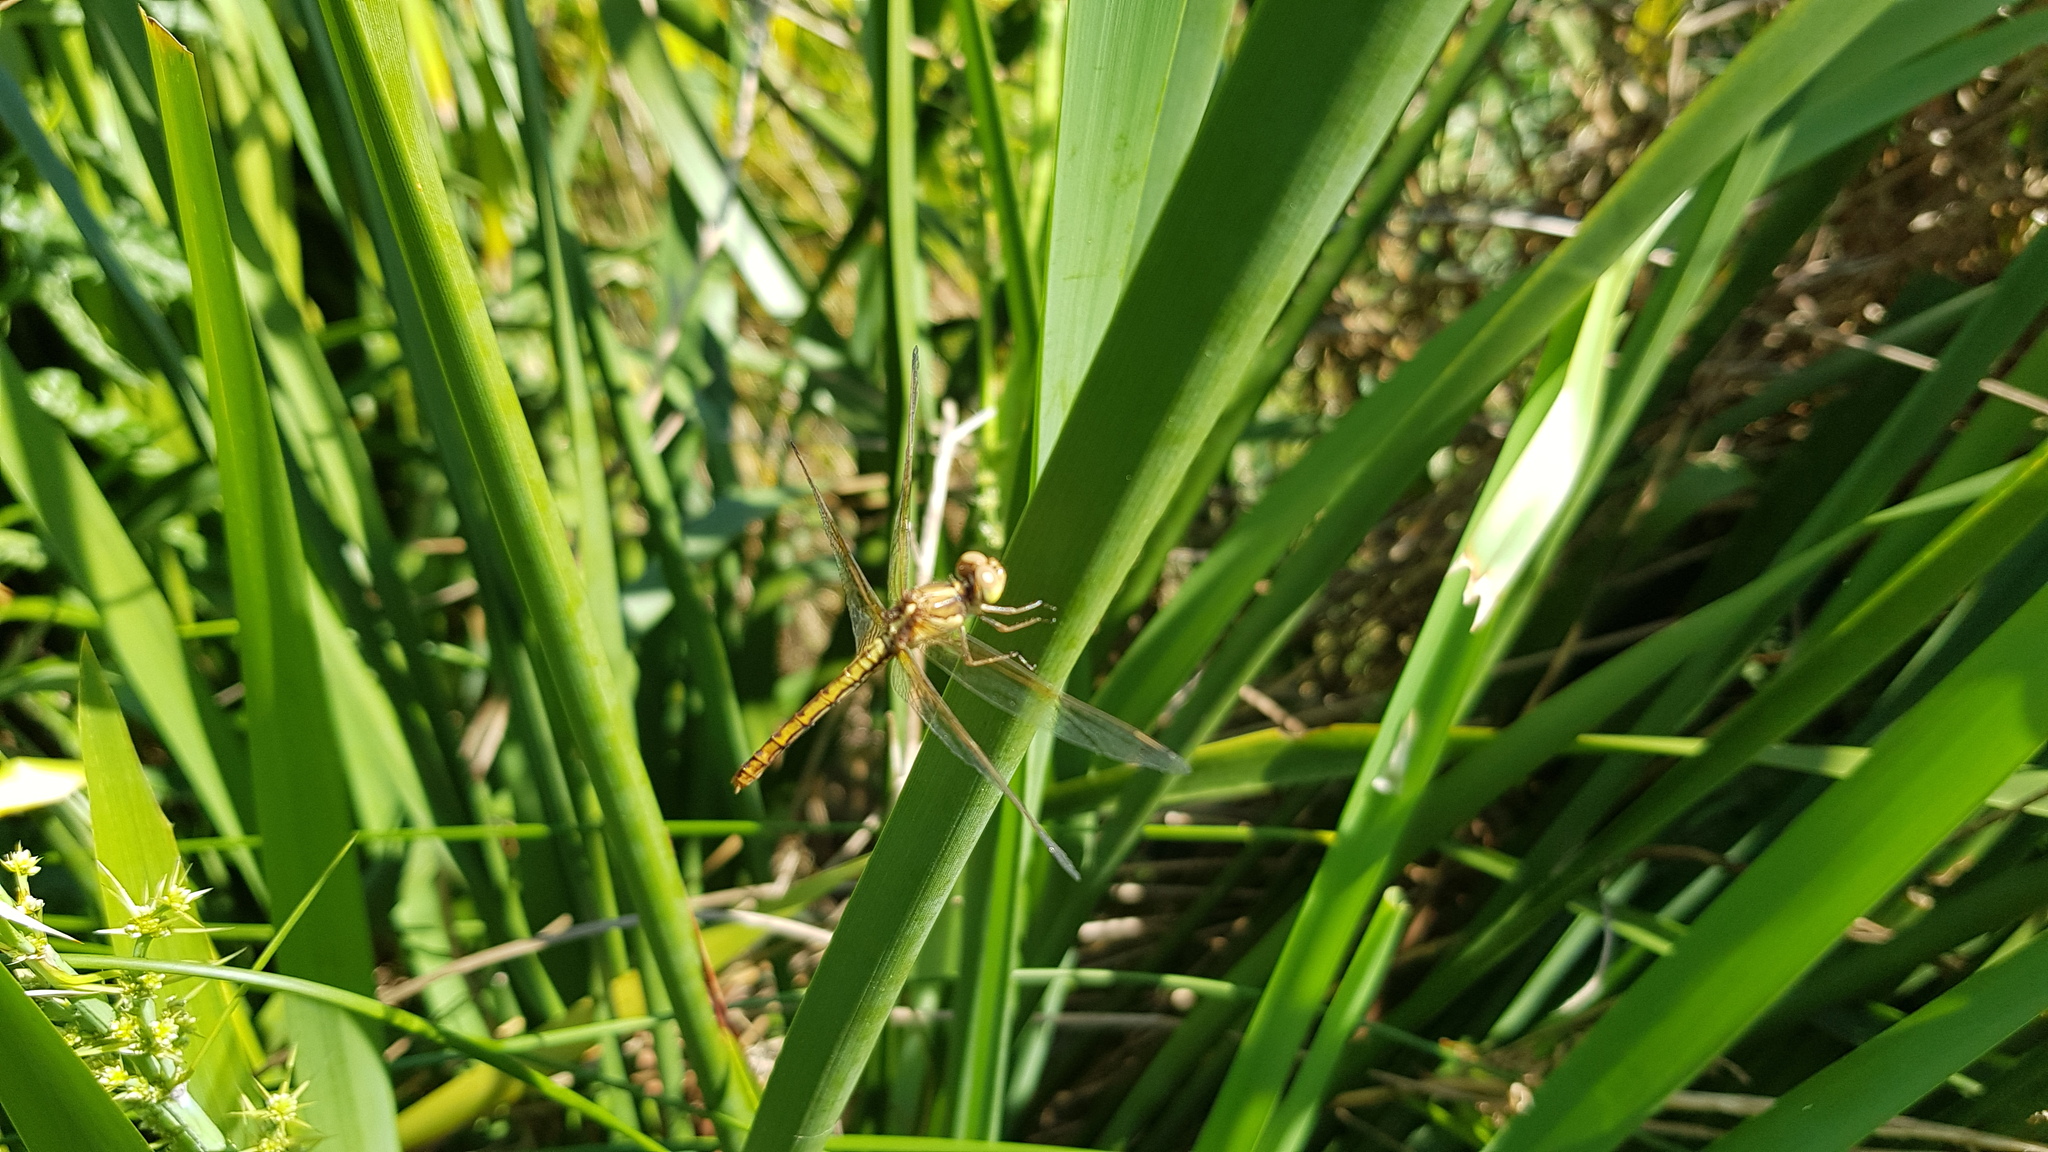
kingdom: Animalia
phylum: Arthropoda
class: Insecta
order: Odonata
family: Libellulidae
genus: Diplacodes
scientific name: Diplacodes haematodes
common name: Scarlet percher
